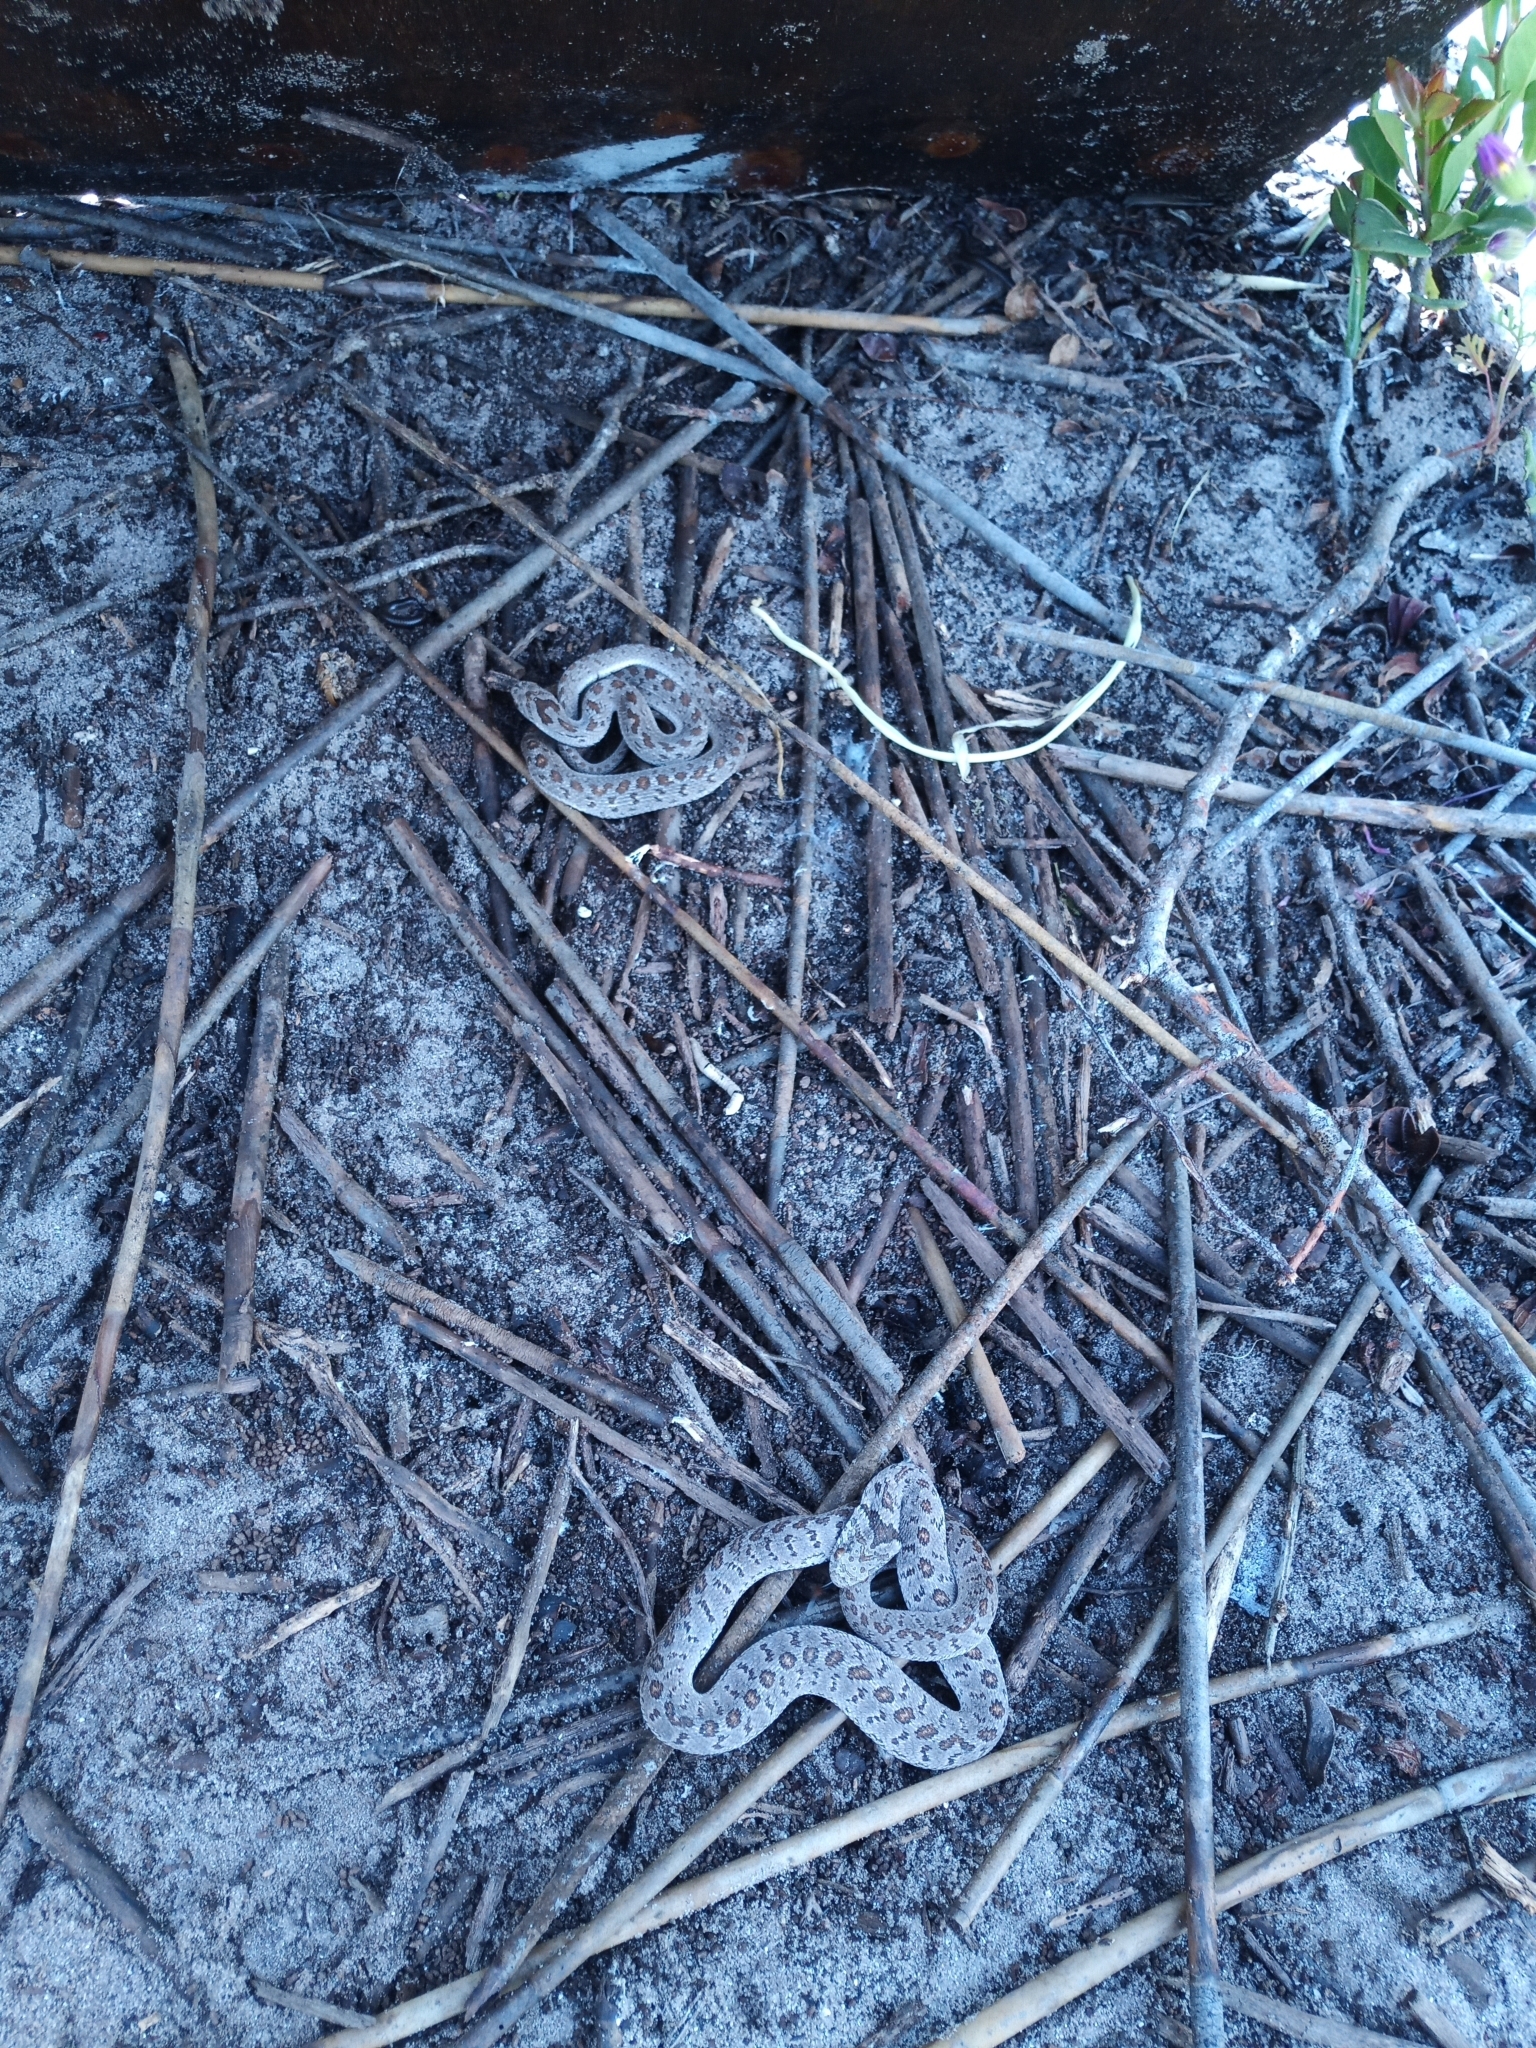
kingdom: Animalia
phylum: Chordata
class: Squamata
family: Colubridae
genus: Dasypeltis
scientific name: Dasypeltis scabra
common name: Common egg eater
